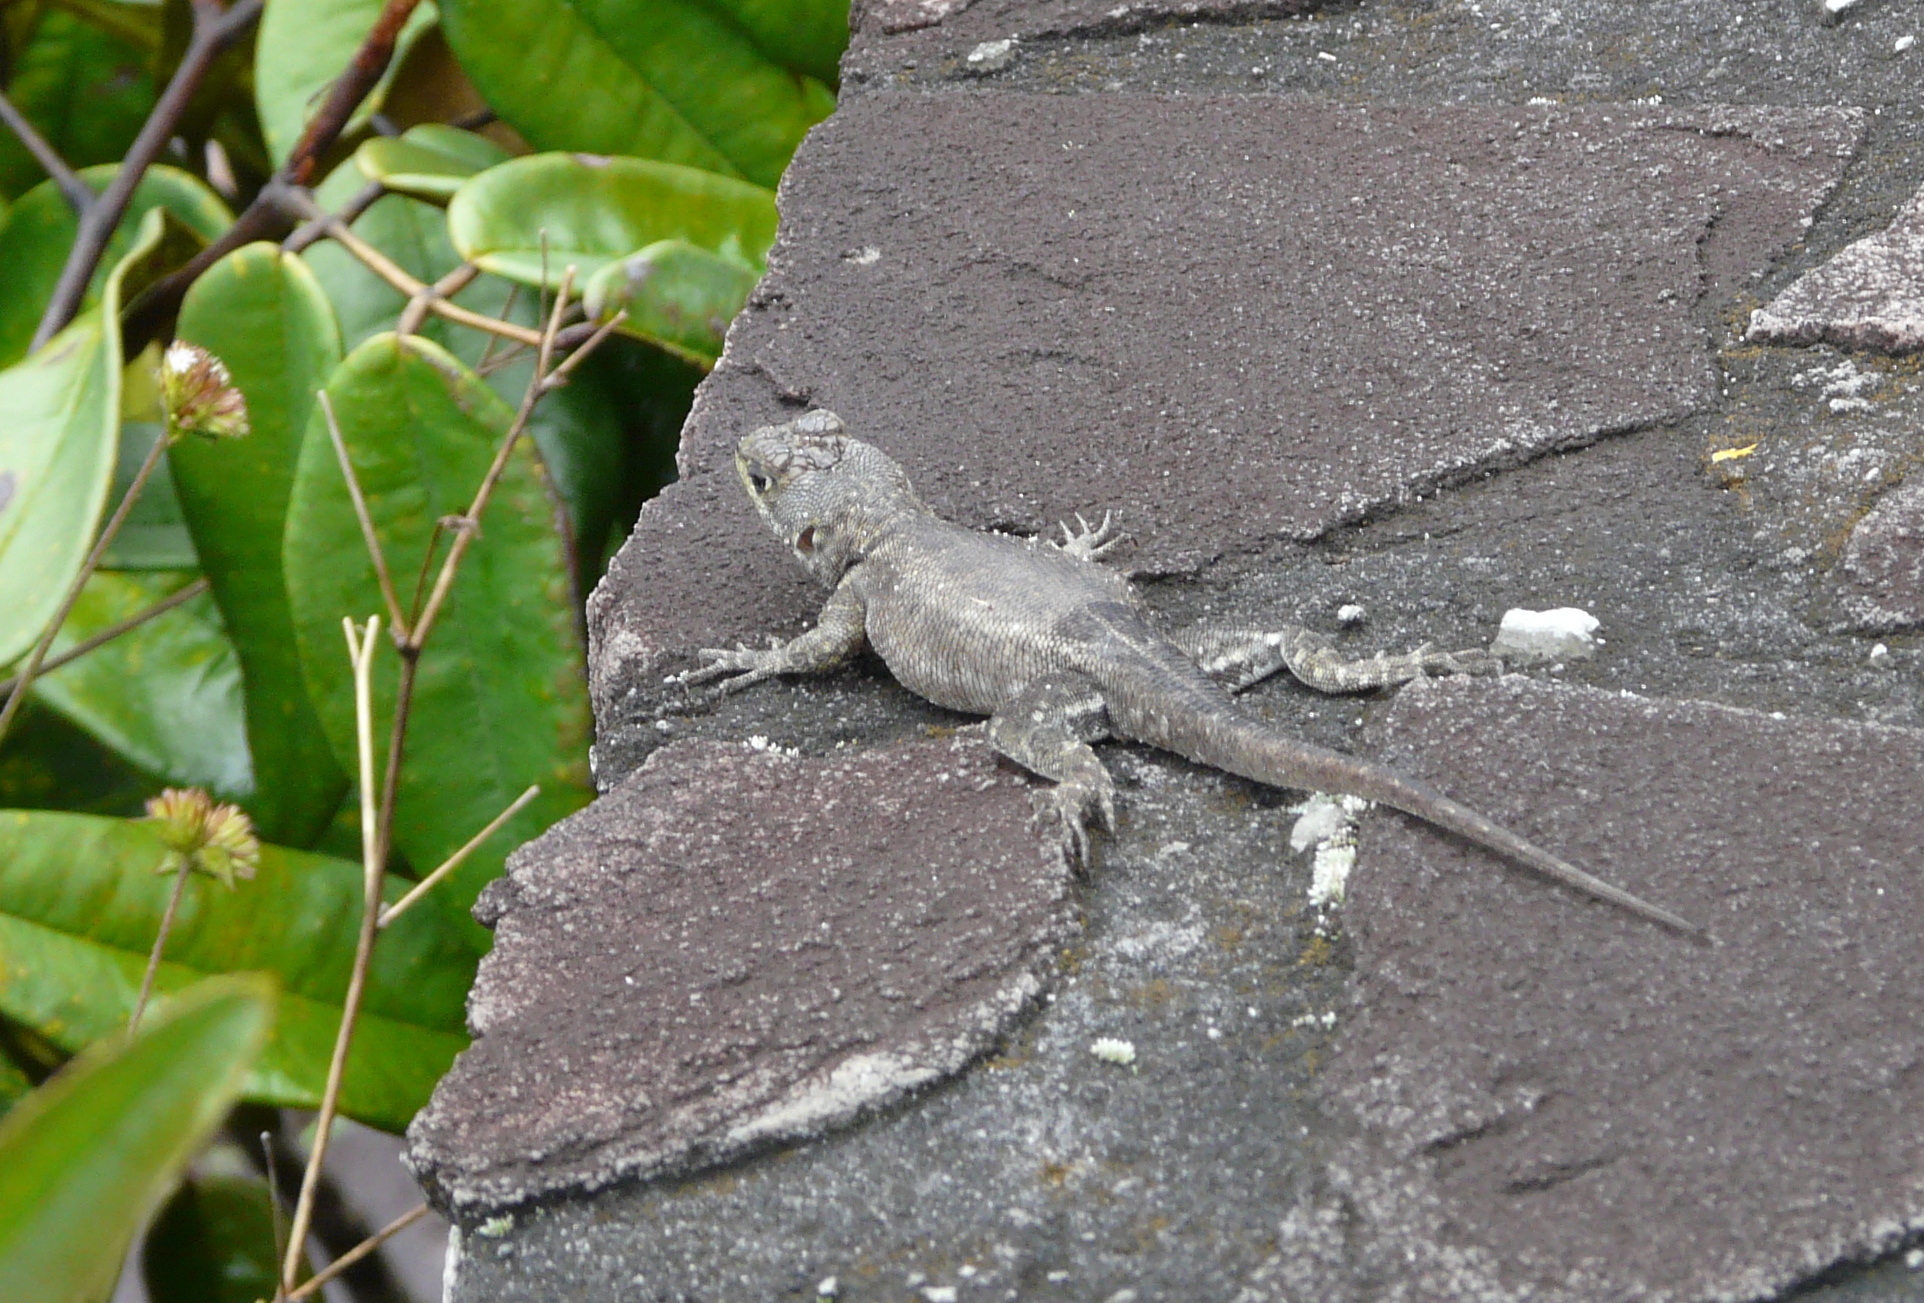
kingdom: Animalia
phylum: Chordata
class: Squamata
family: Tropiduridae
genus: Tropidurus
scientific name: Tropidurus hispidus
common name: Peters' lava lizard
